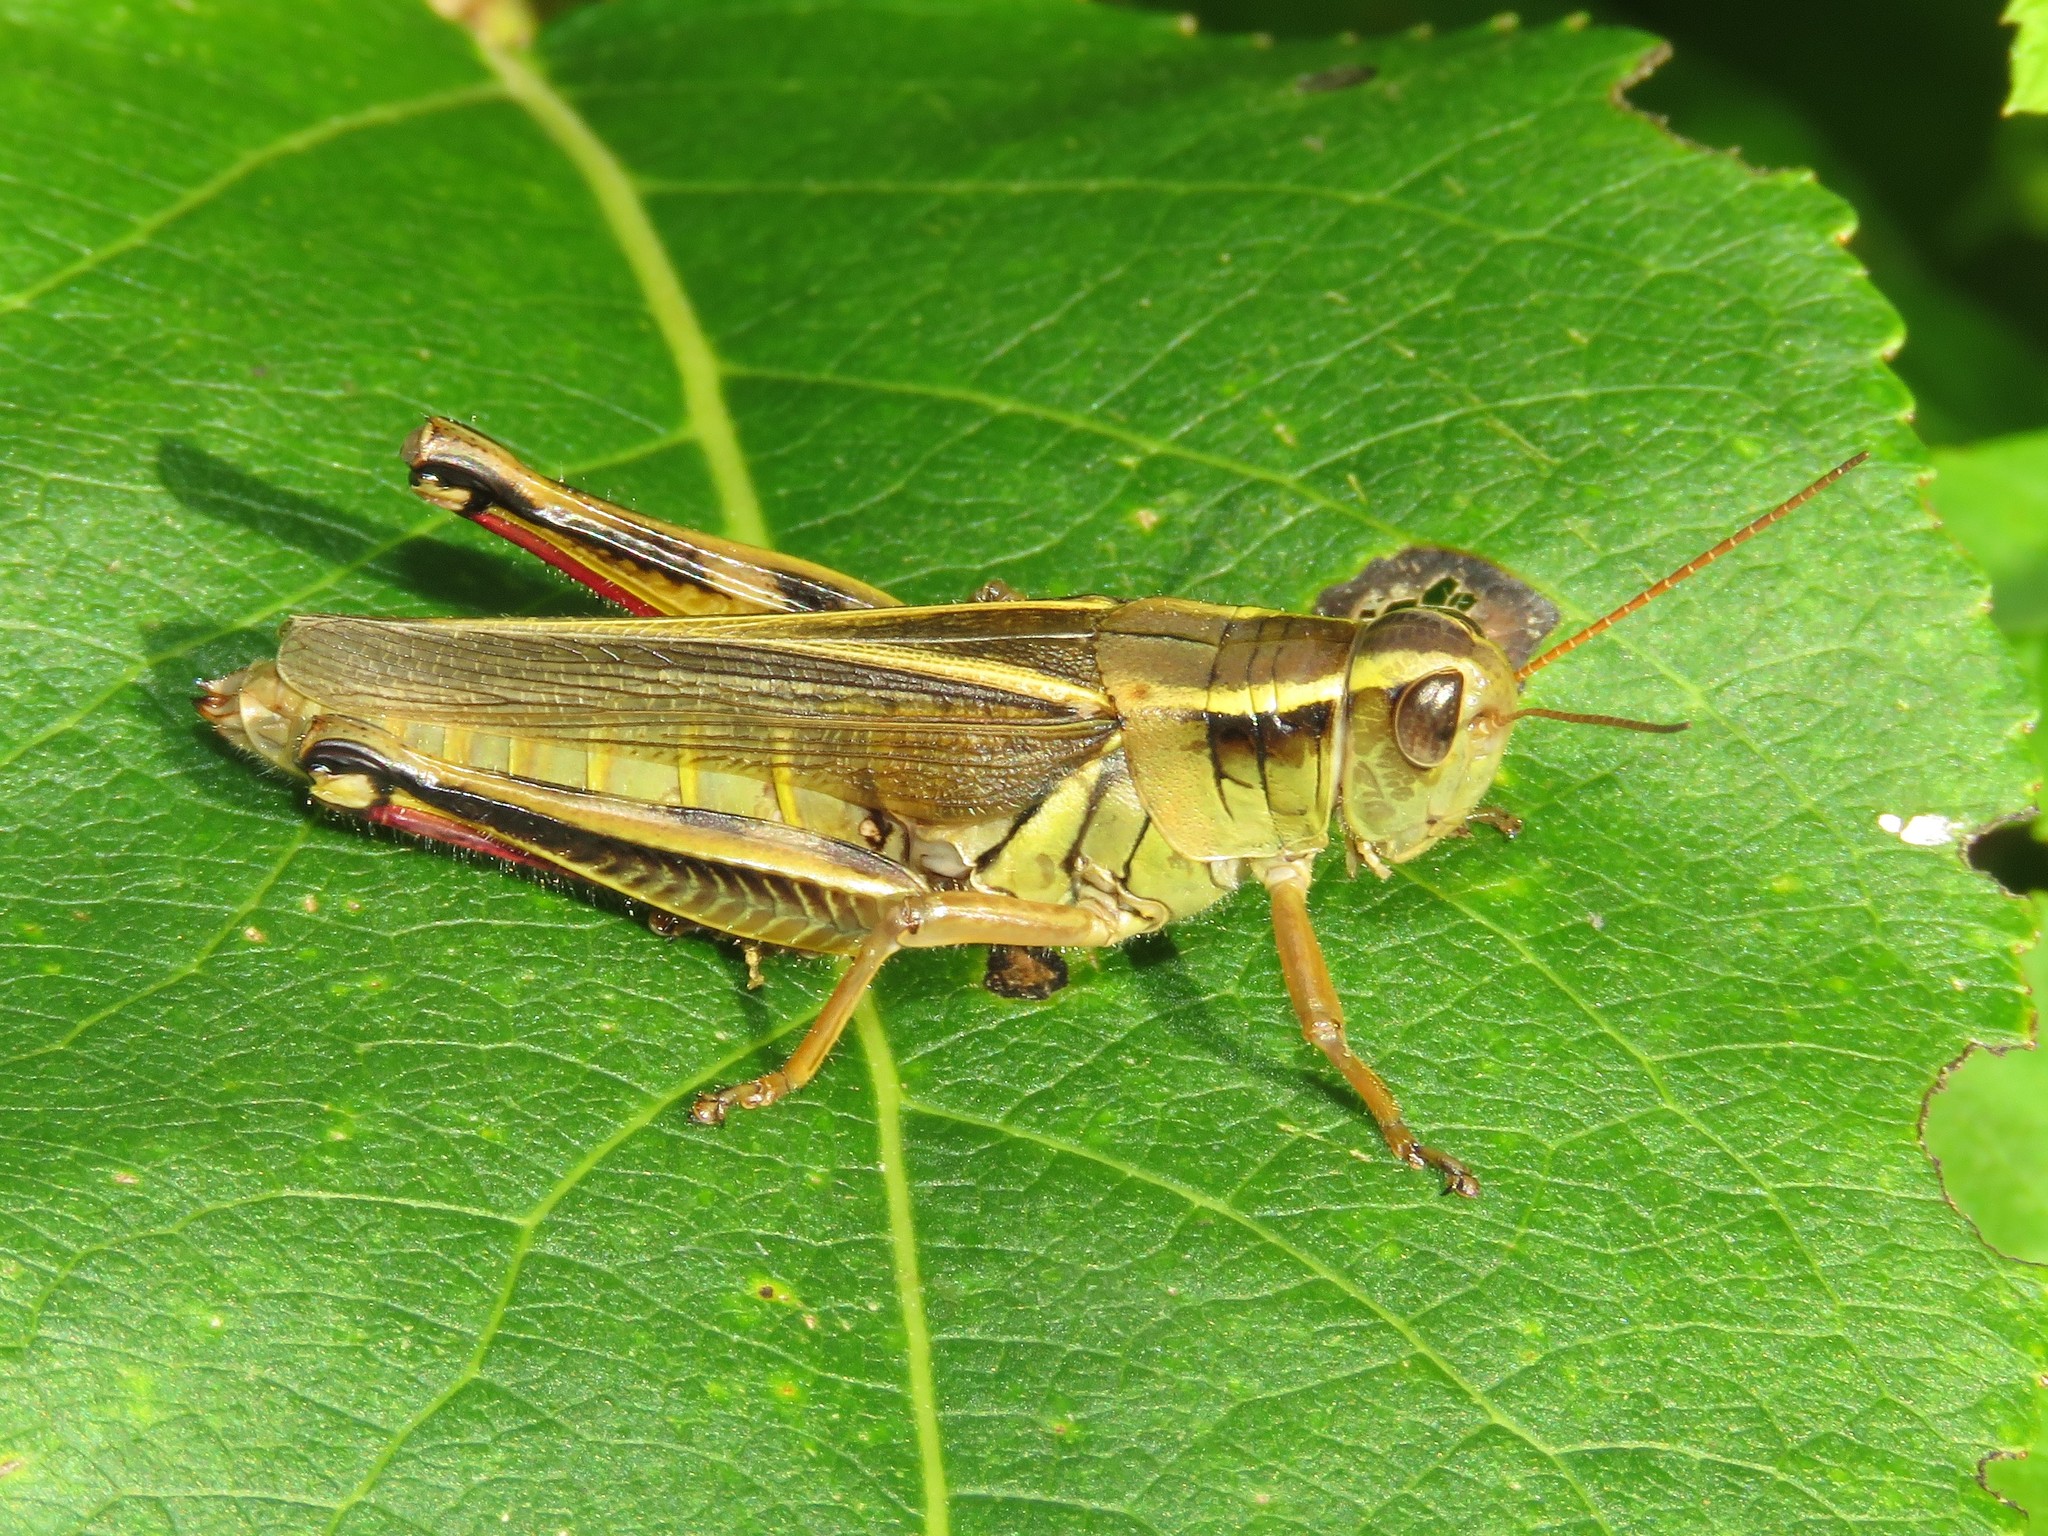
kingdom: Animalia
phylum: Arthropoda
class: Insecta
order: Orthoptera
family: Acrididae
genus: Melanoplus
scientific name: Melanoplus bivittatus
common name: Two-striped grasshopper
